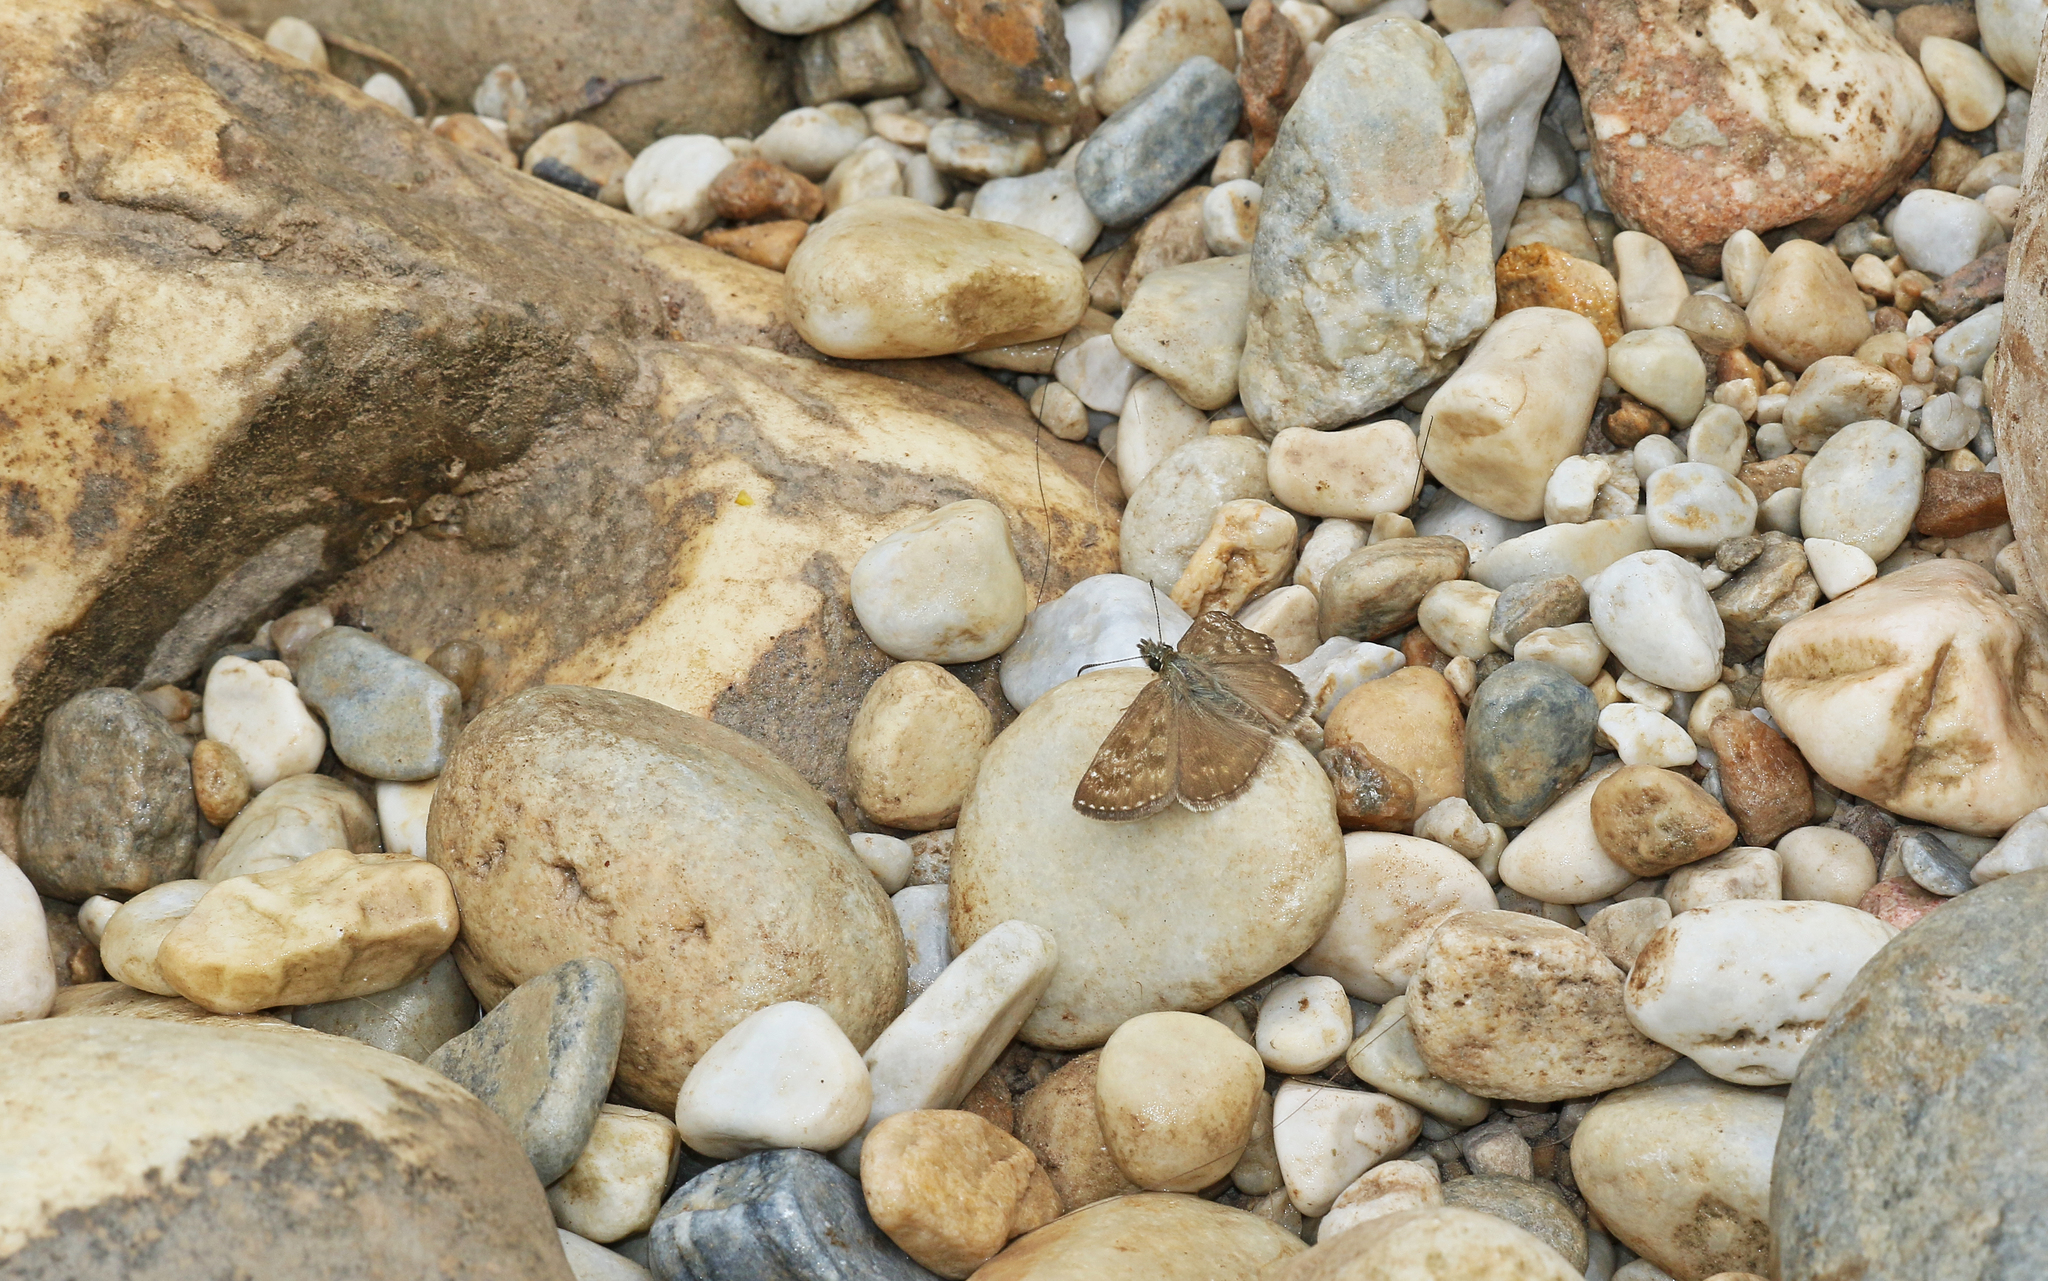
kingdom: Animalia
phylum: Arthropoda
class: Insecta
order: Lepidoptera
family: Hesperiidae
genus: Erynnis
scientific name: Erynnis tages
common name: Dingy skipper
